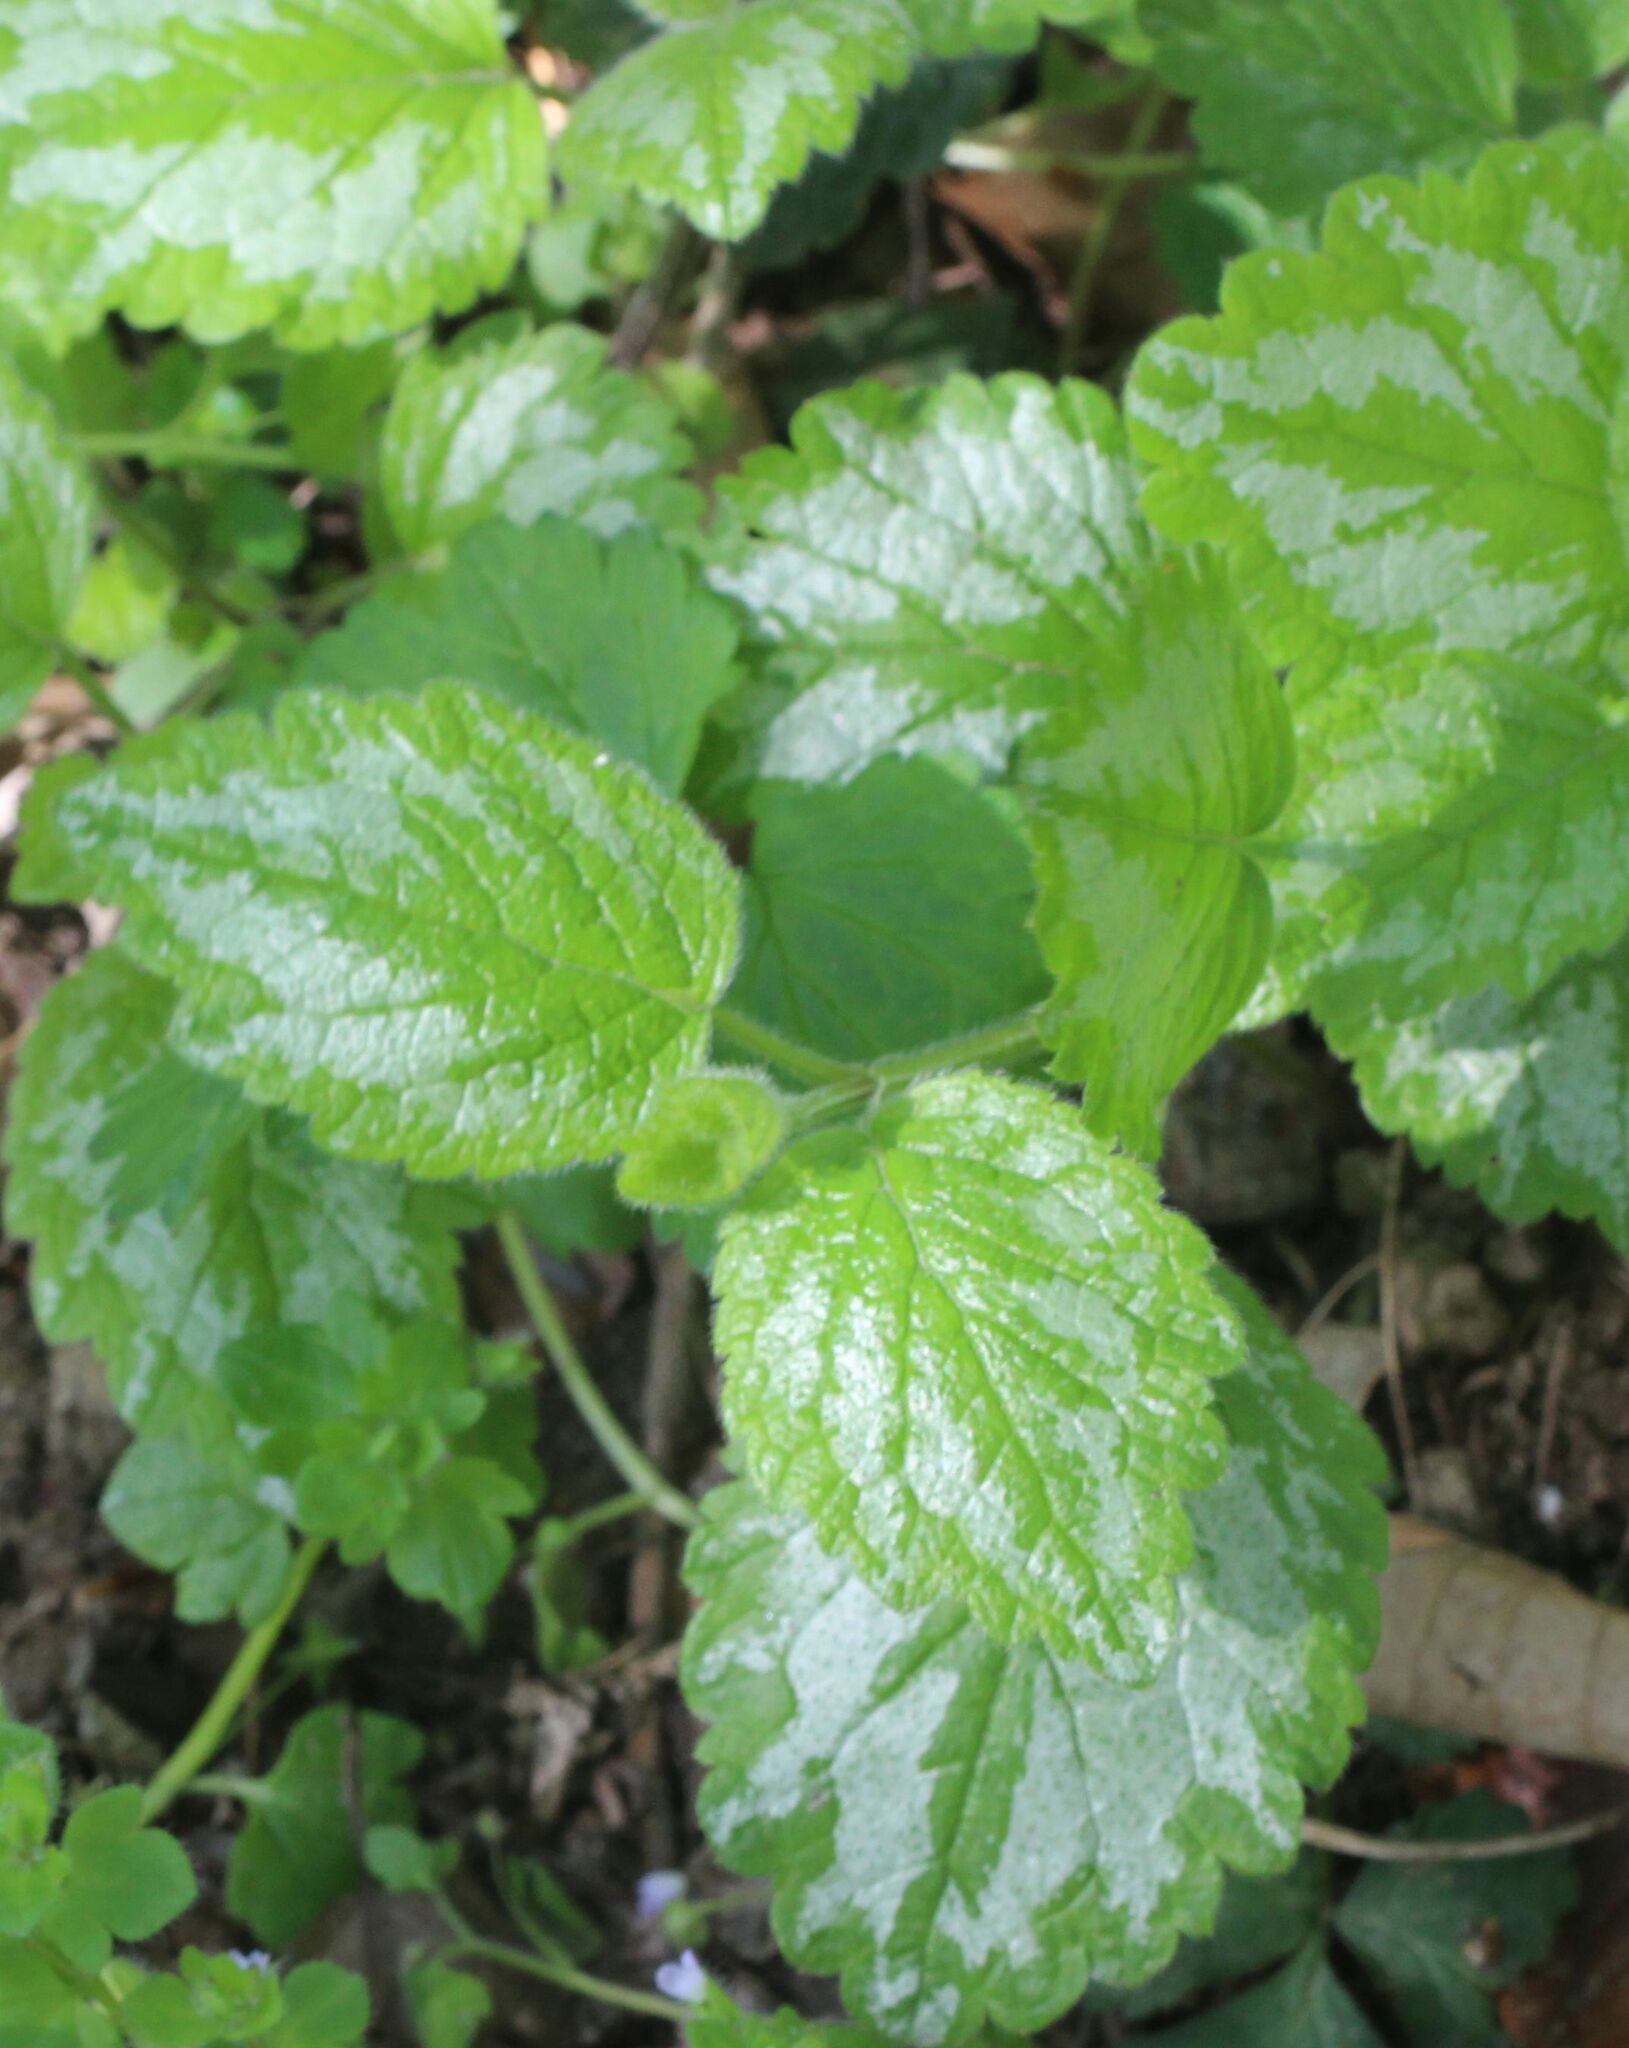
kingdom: Plantae
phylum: Tracheophyta
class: Magnoliopsida
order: Lamiales
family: Lamiaceae
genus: Lamium
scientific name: Lamium galeobdolon
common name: Yellow archangel
